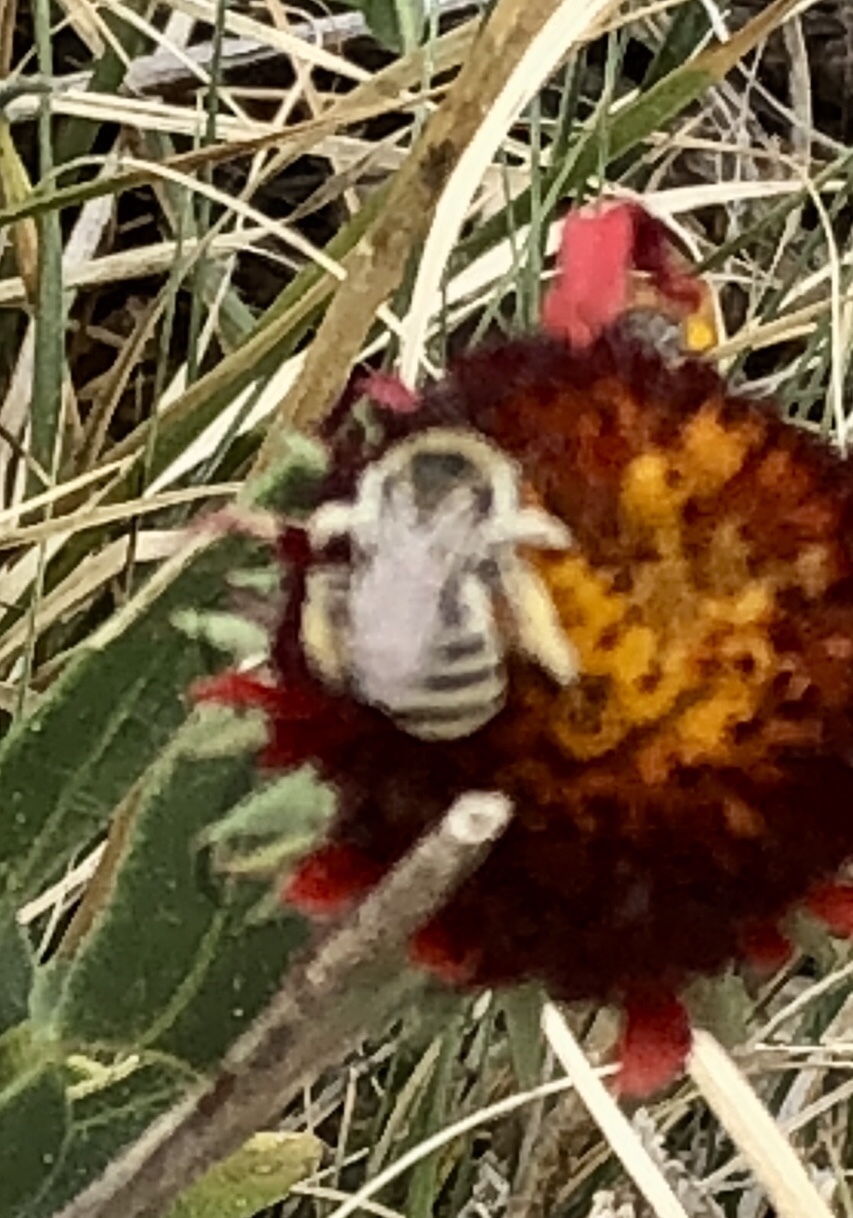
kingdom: Animalia
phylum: Arthropoda
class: Insecta
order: Hymenoptera
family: Apidae
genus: Melissodes
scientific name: Melissodes
